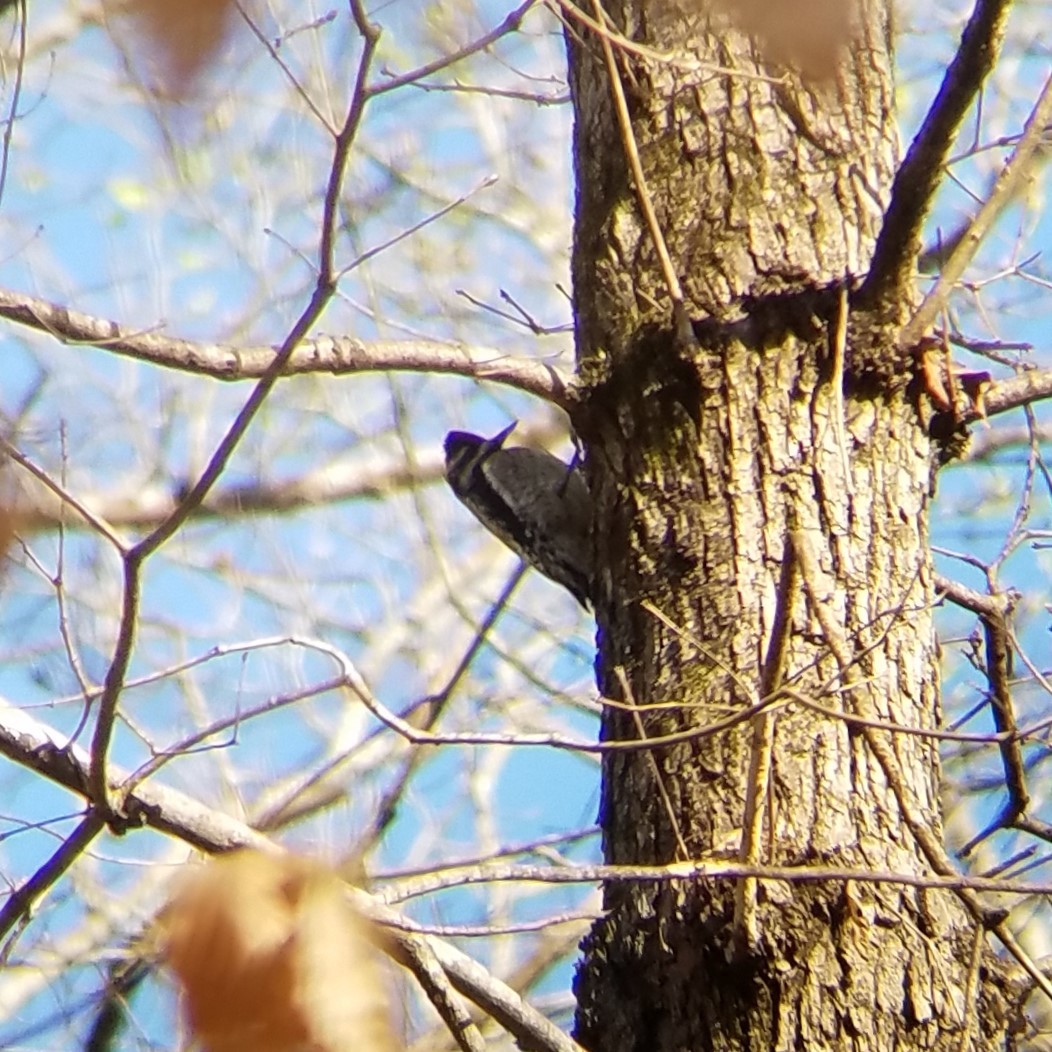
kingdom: Animalia
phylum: Chordata
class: Aves
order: Piciformes
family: Picidae
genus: Sphyrapicus
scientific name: Sphyrapicus varius
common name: Yellow-bellied sapsucker
